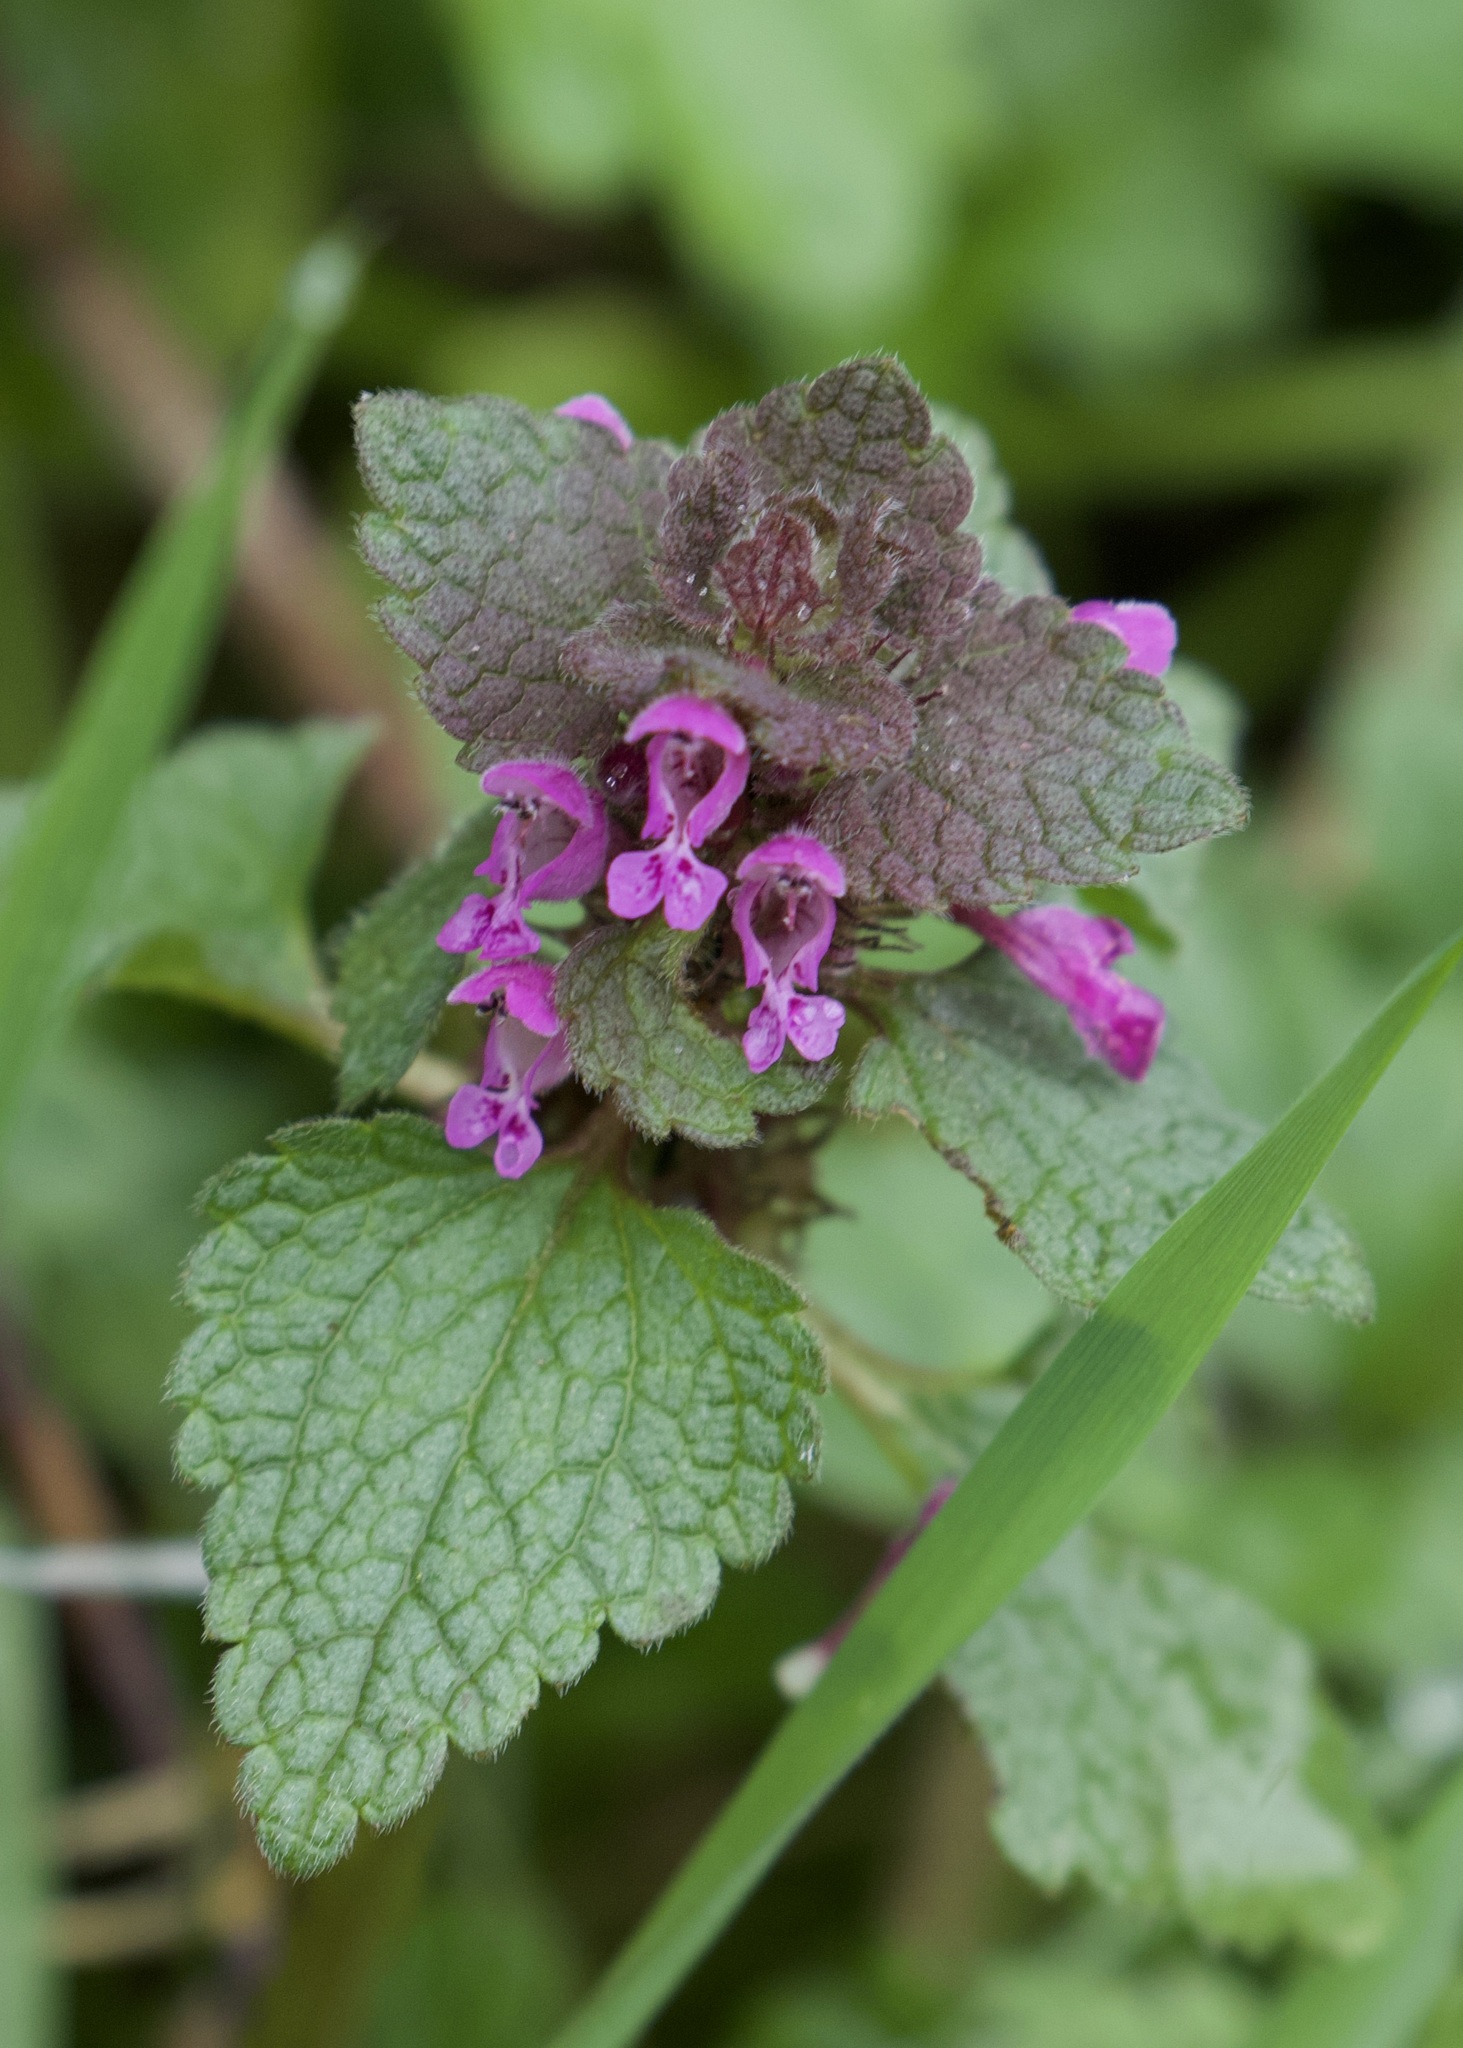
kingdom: Plantae
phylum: Tracheophyta
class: Magnoliopsida
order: Lamiales
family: Lamiaceae
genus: Lamium
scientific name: Lamium purpureum
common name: Red dead-nettle
